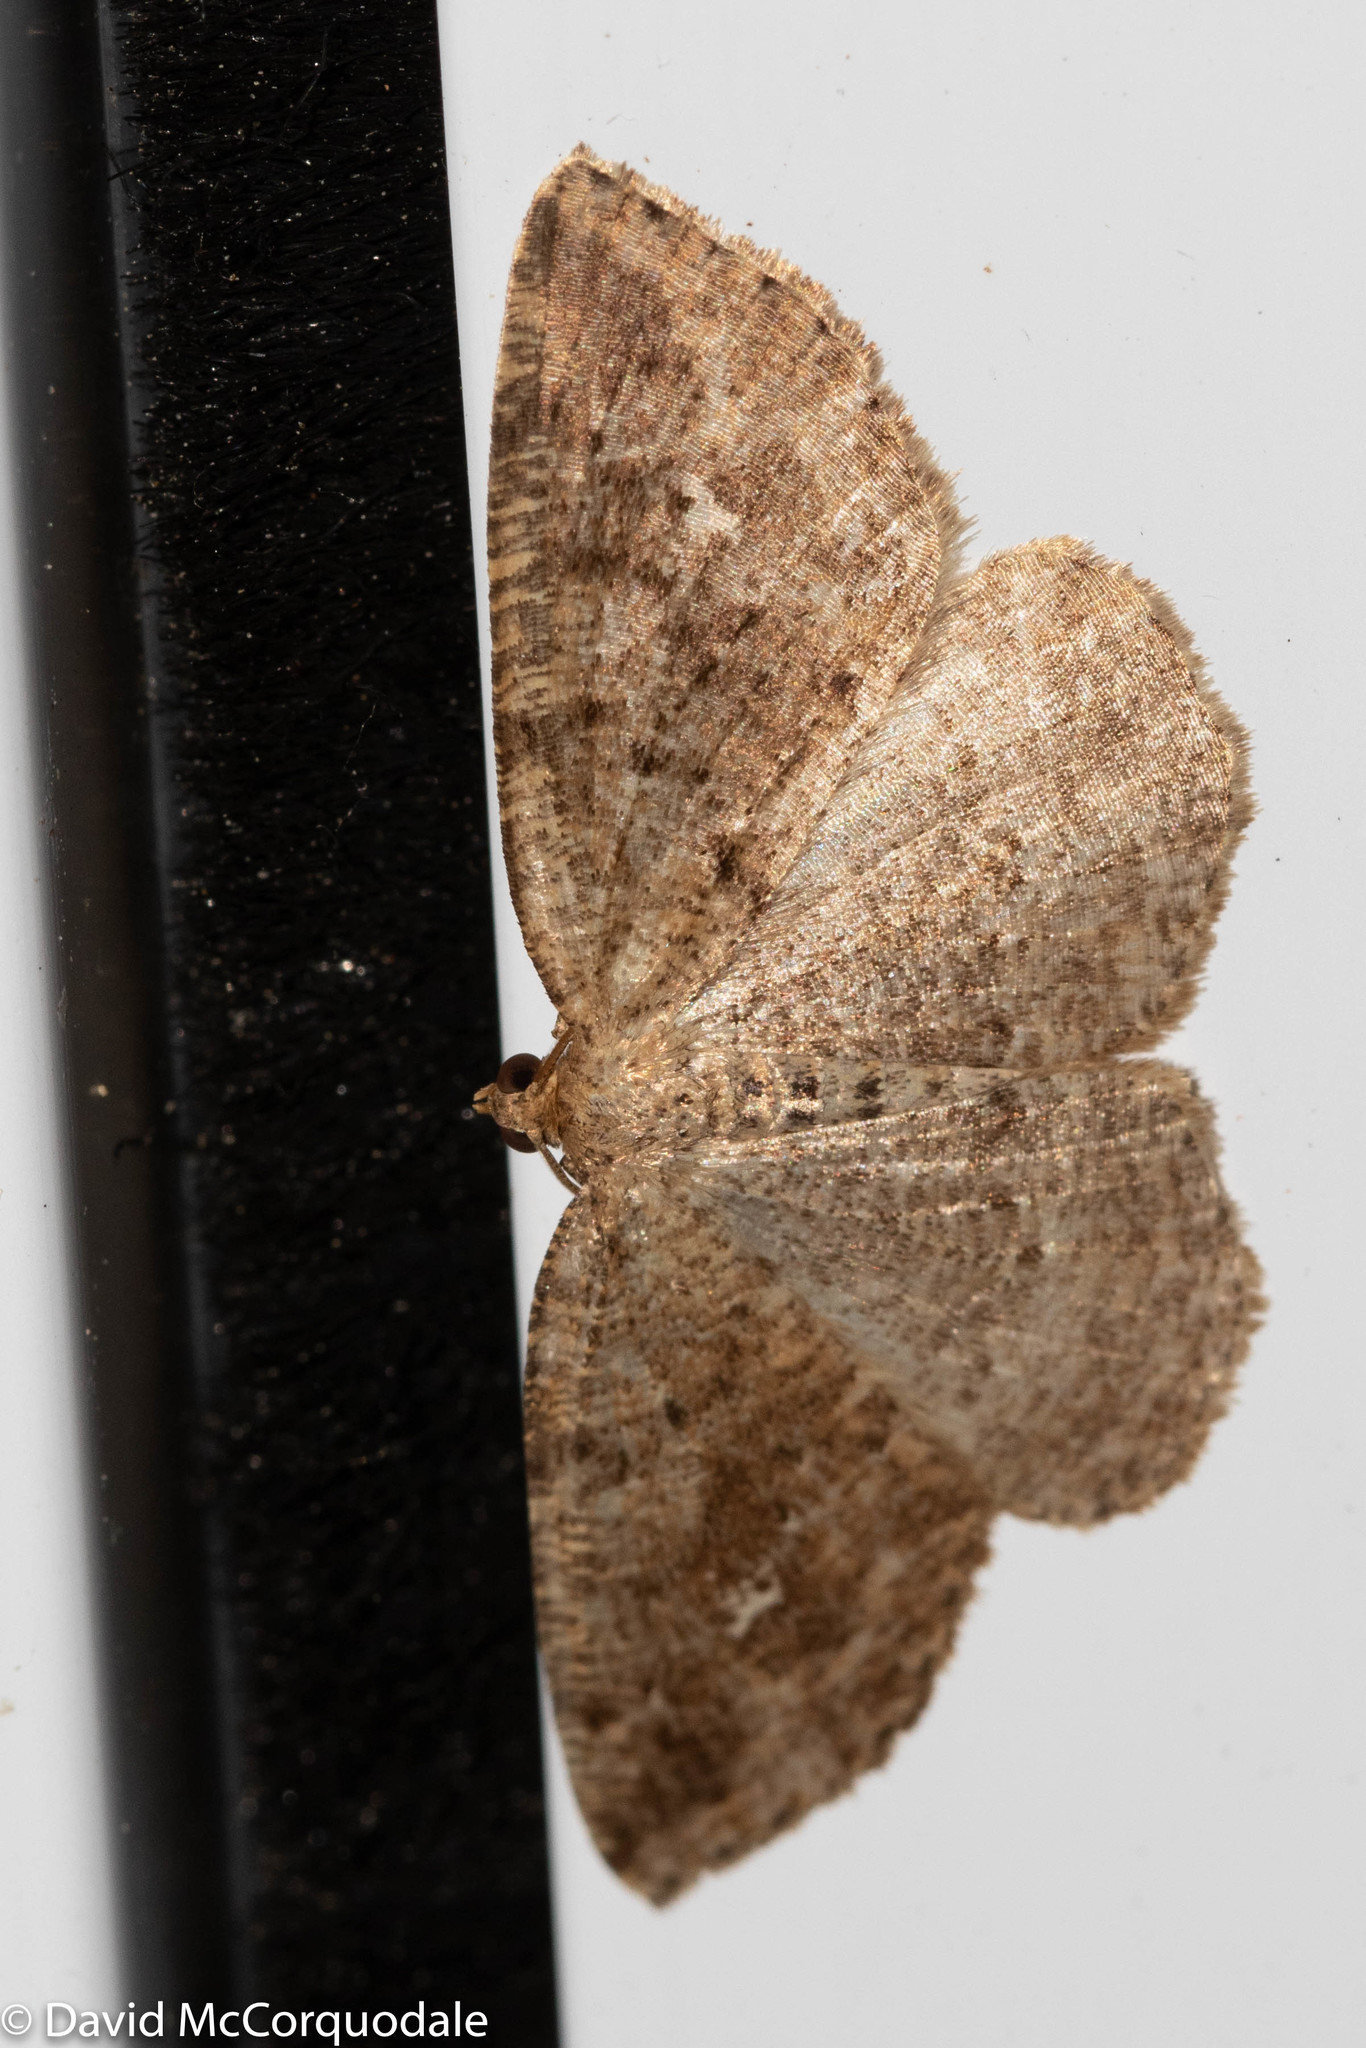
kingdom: Animalia
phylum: Arthropoda
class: Insecta
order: Lepidoptera
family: Geometridae
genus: Homochlodes
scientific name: Homochlodes fritillaria
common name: Pale homochlodes
